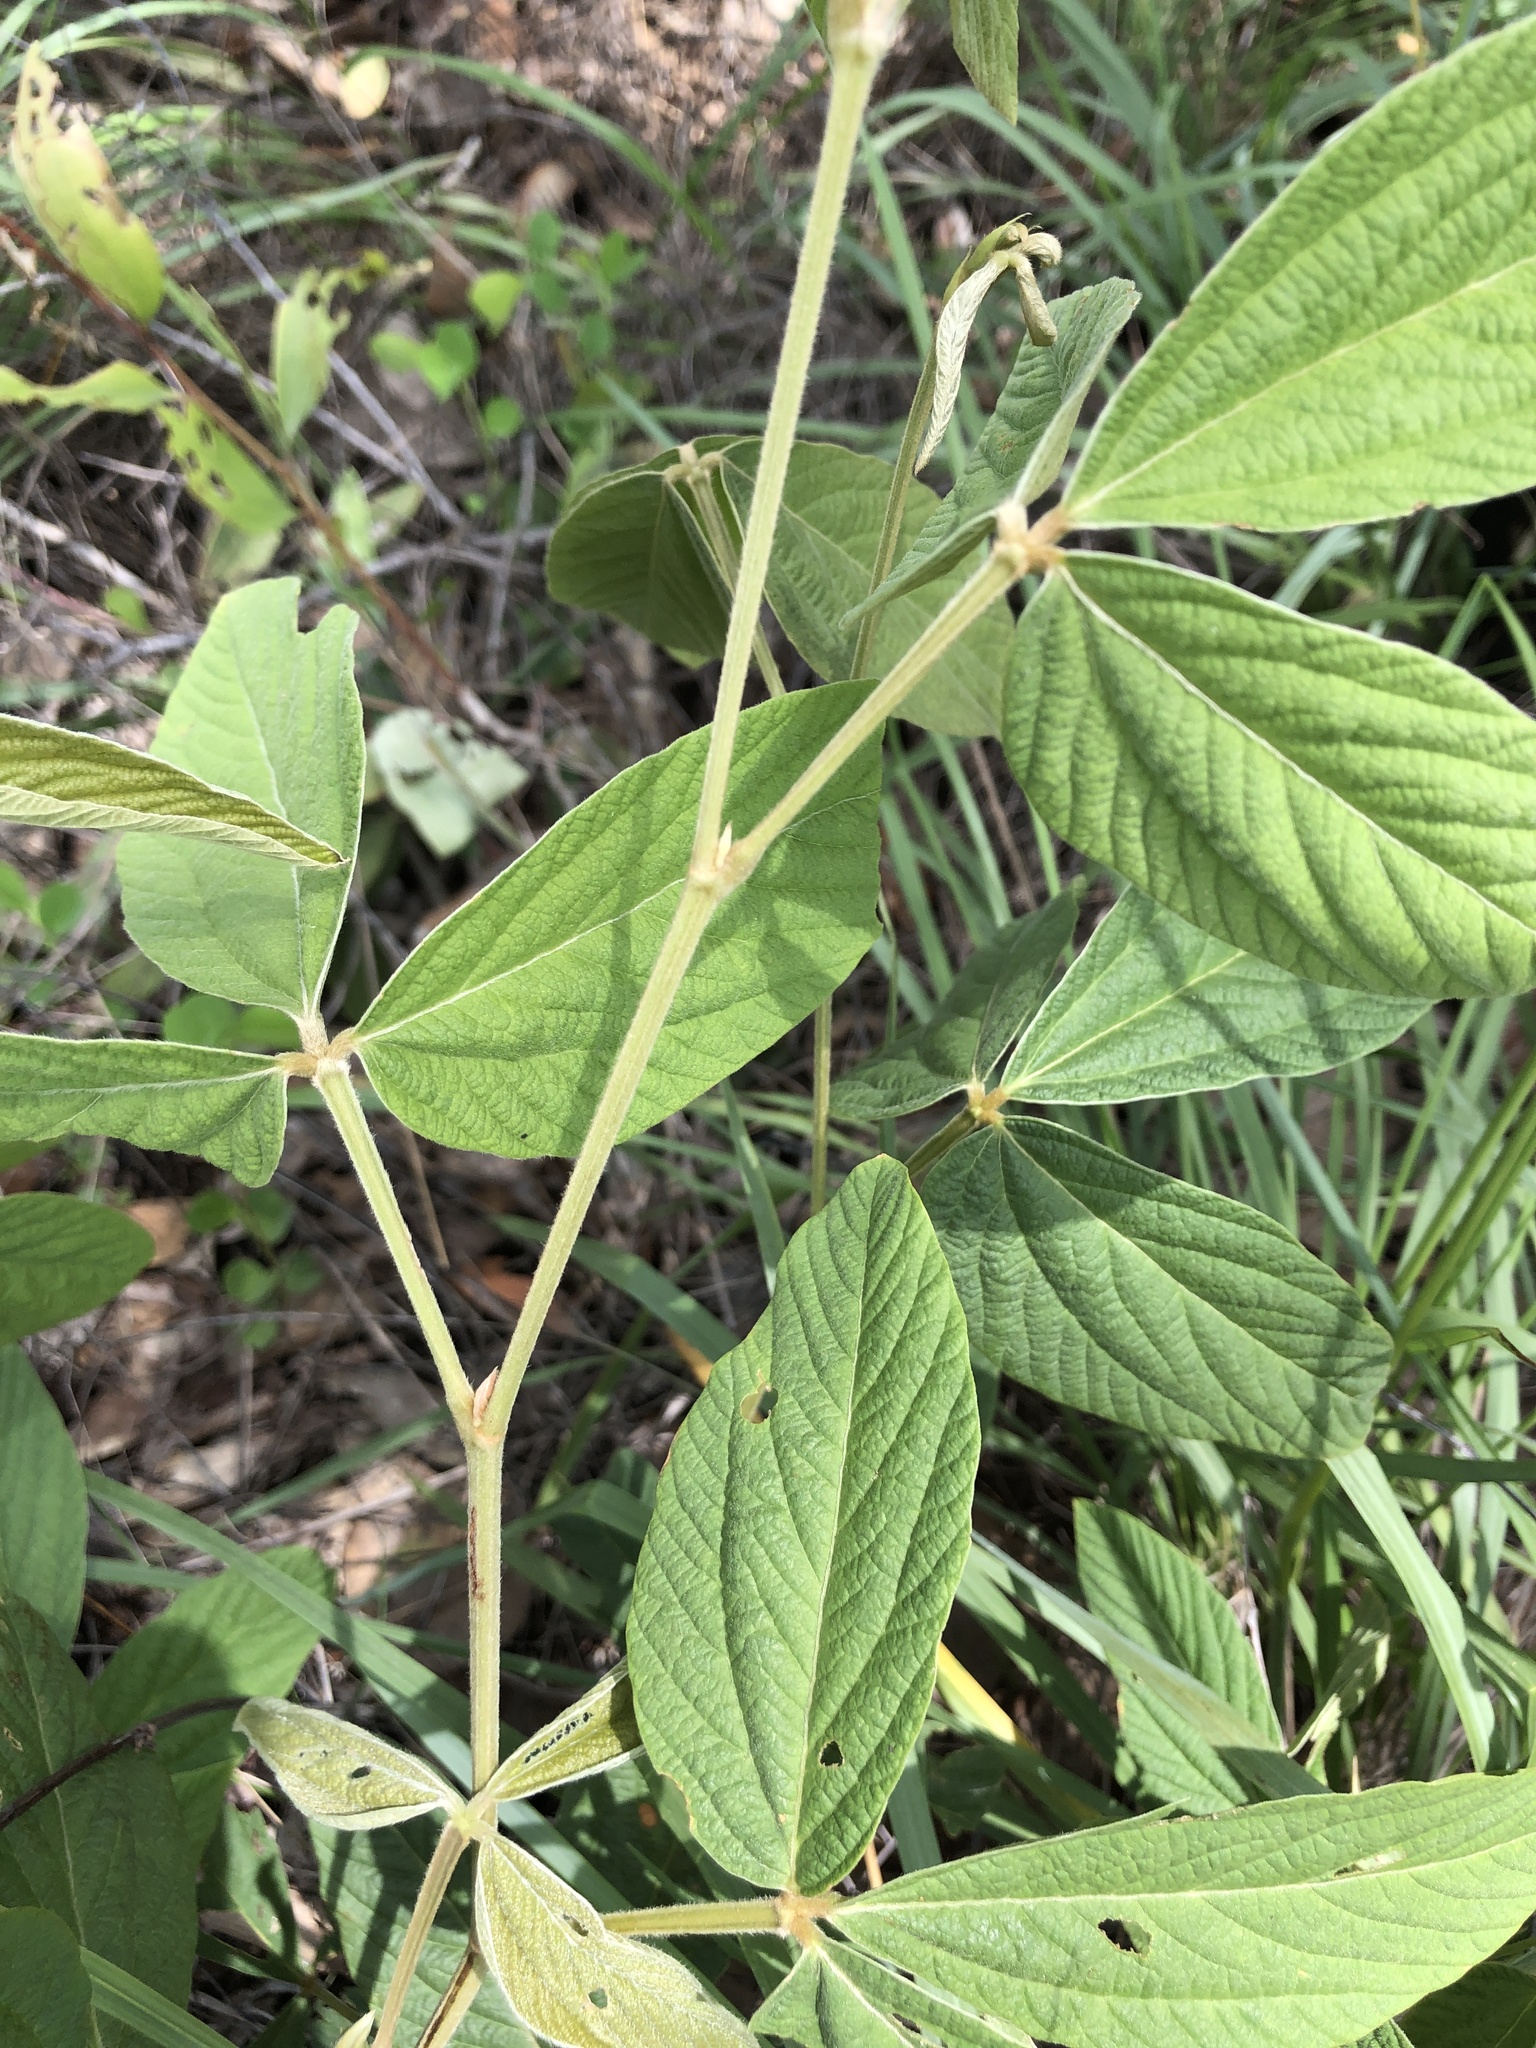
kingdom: Plantae
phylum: Tracheophyta
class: Magnoliopsida
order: Fabales
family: Fabaceae
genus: Flemingia
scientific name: Flemingia parviflora
